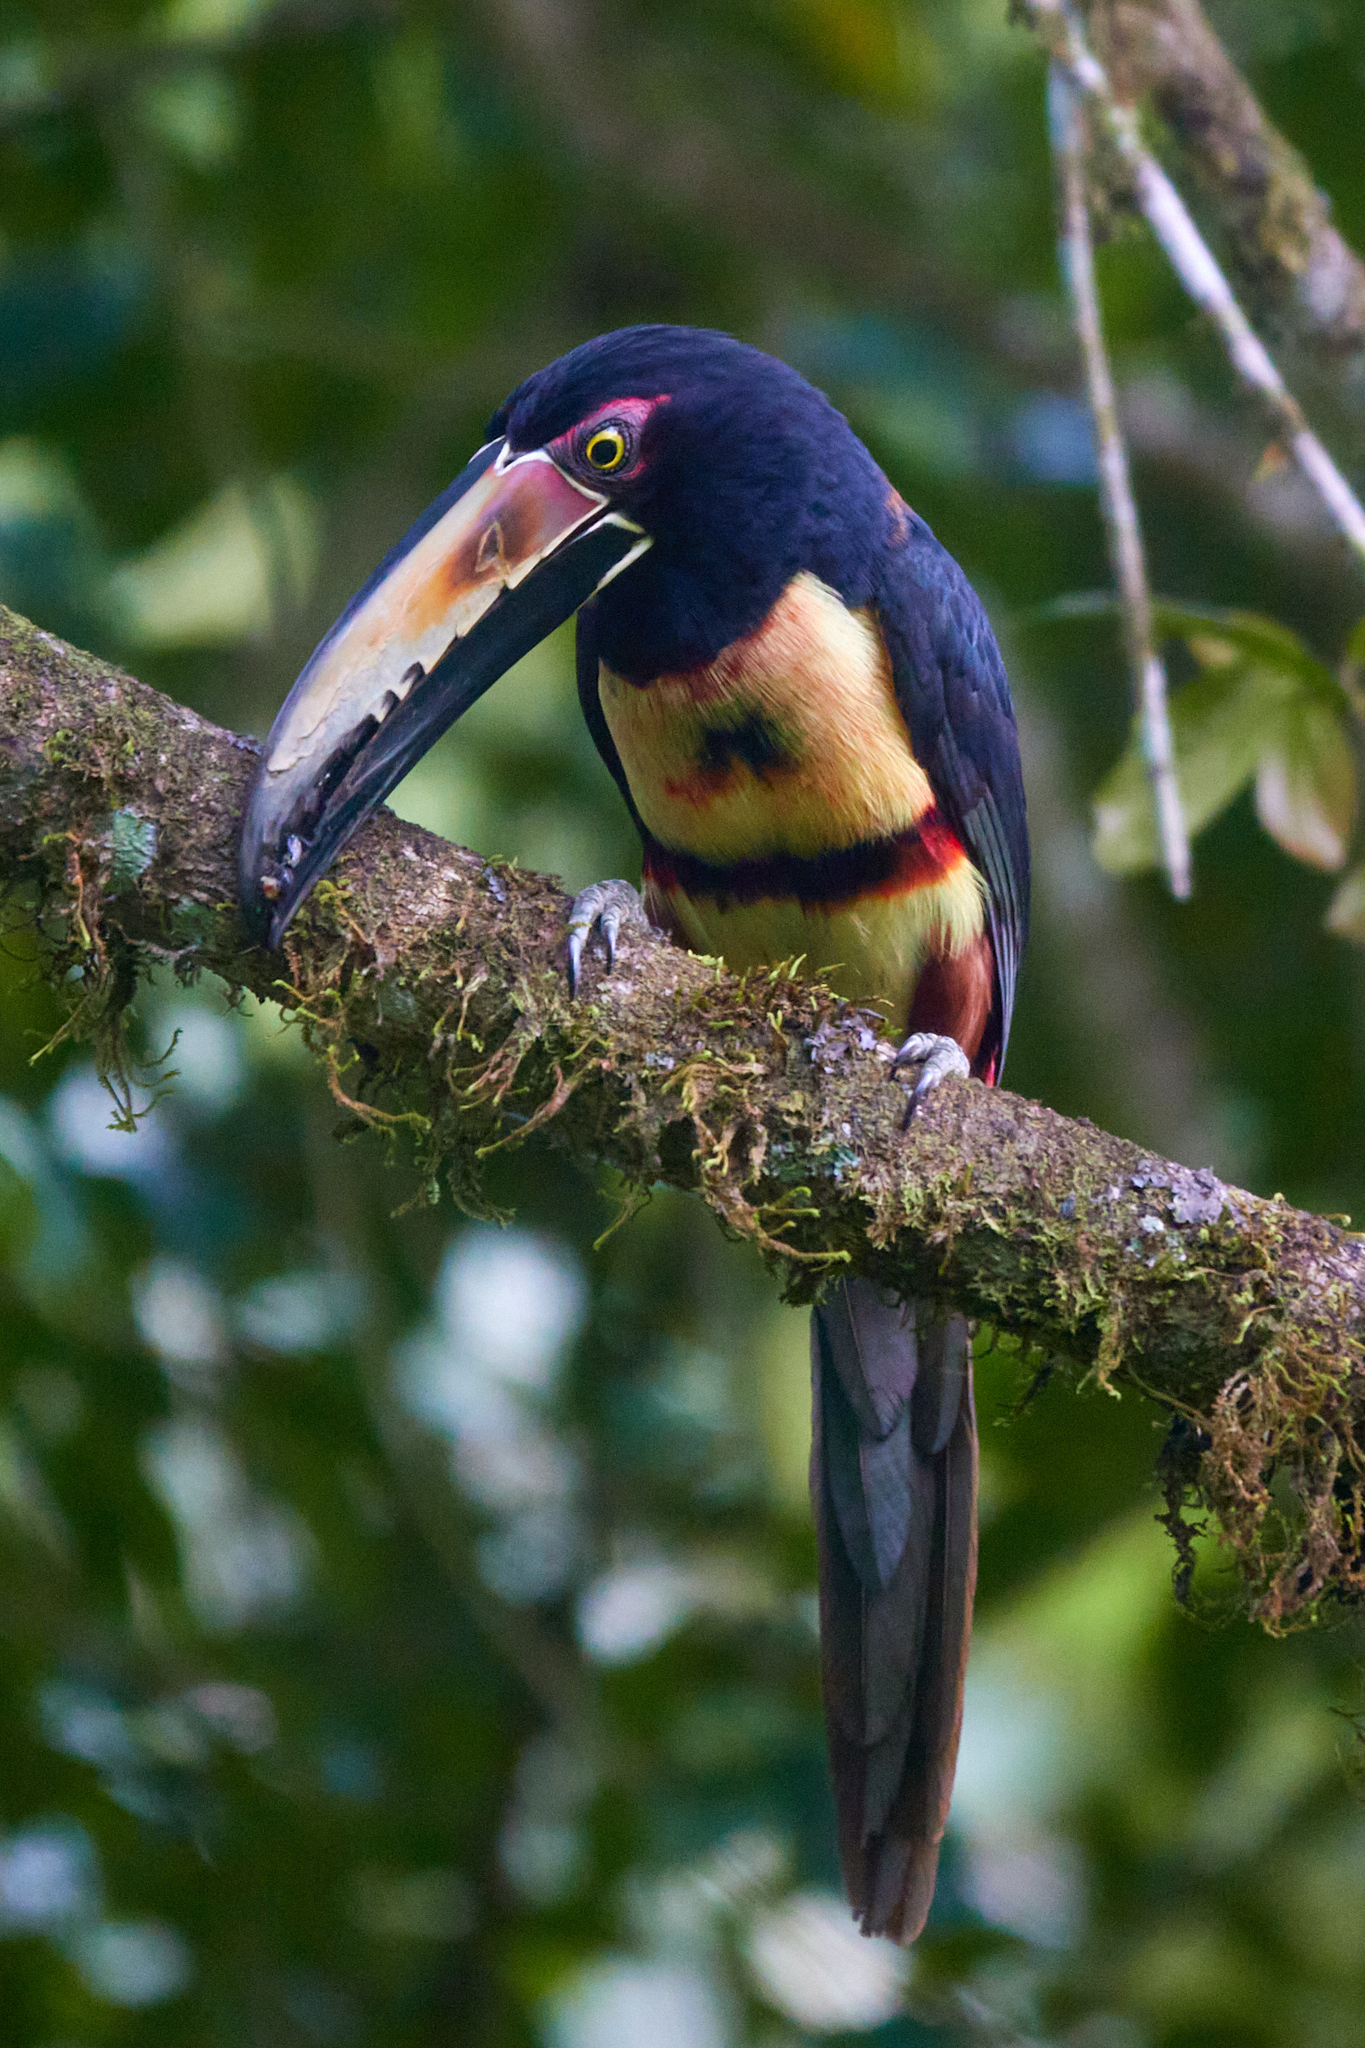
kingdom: Animalia
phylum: Chordata
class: Aves
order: Piciformes
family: Ramphastidae
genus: Pteroglossus
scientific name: Pteroglossus torquatus
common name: Collared aracari
